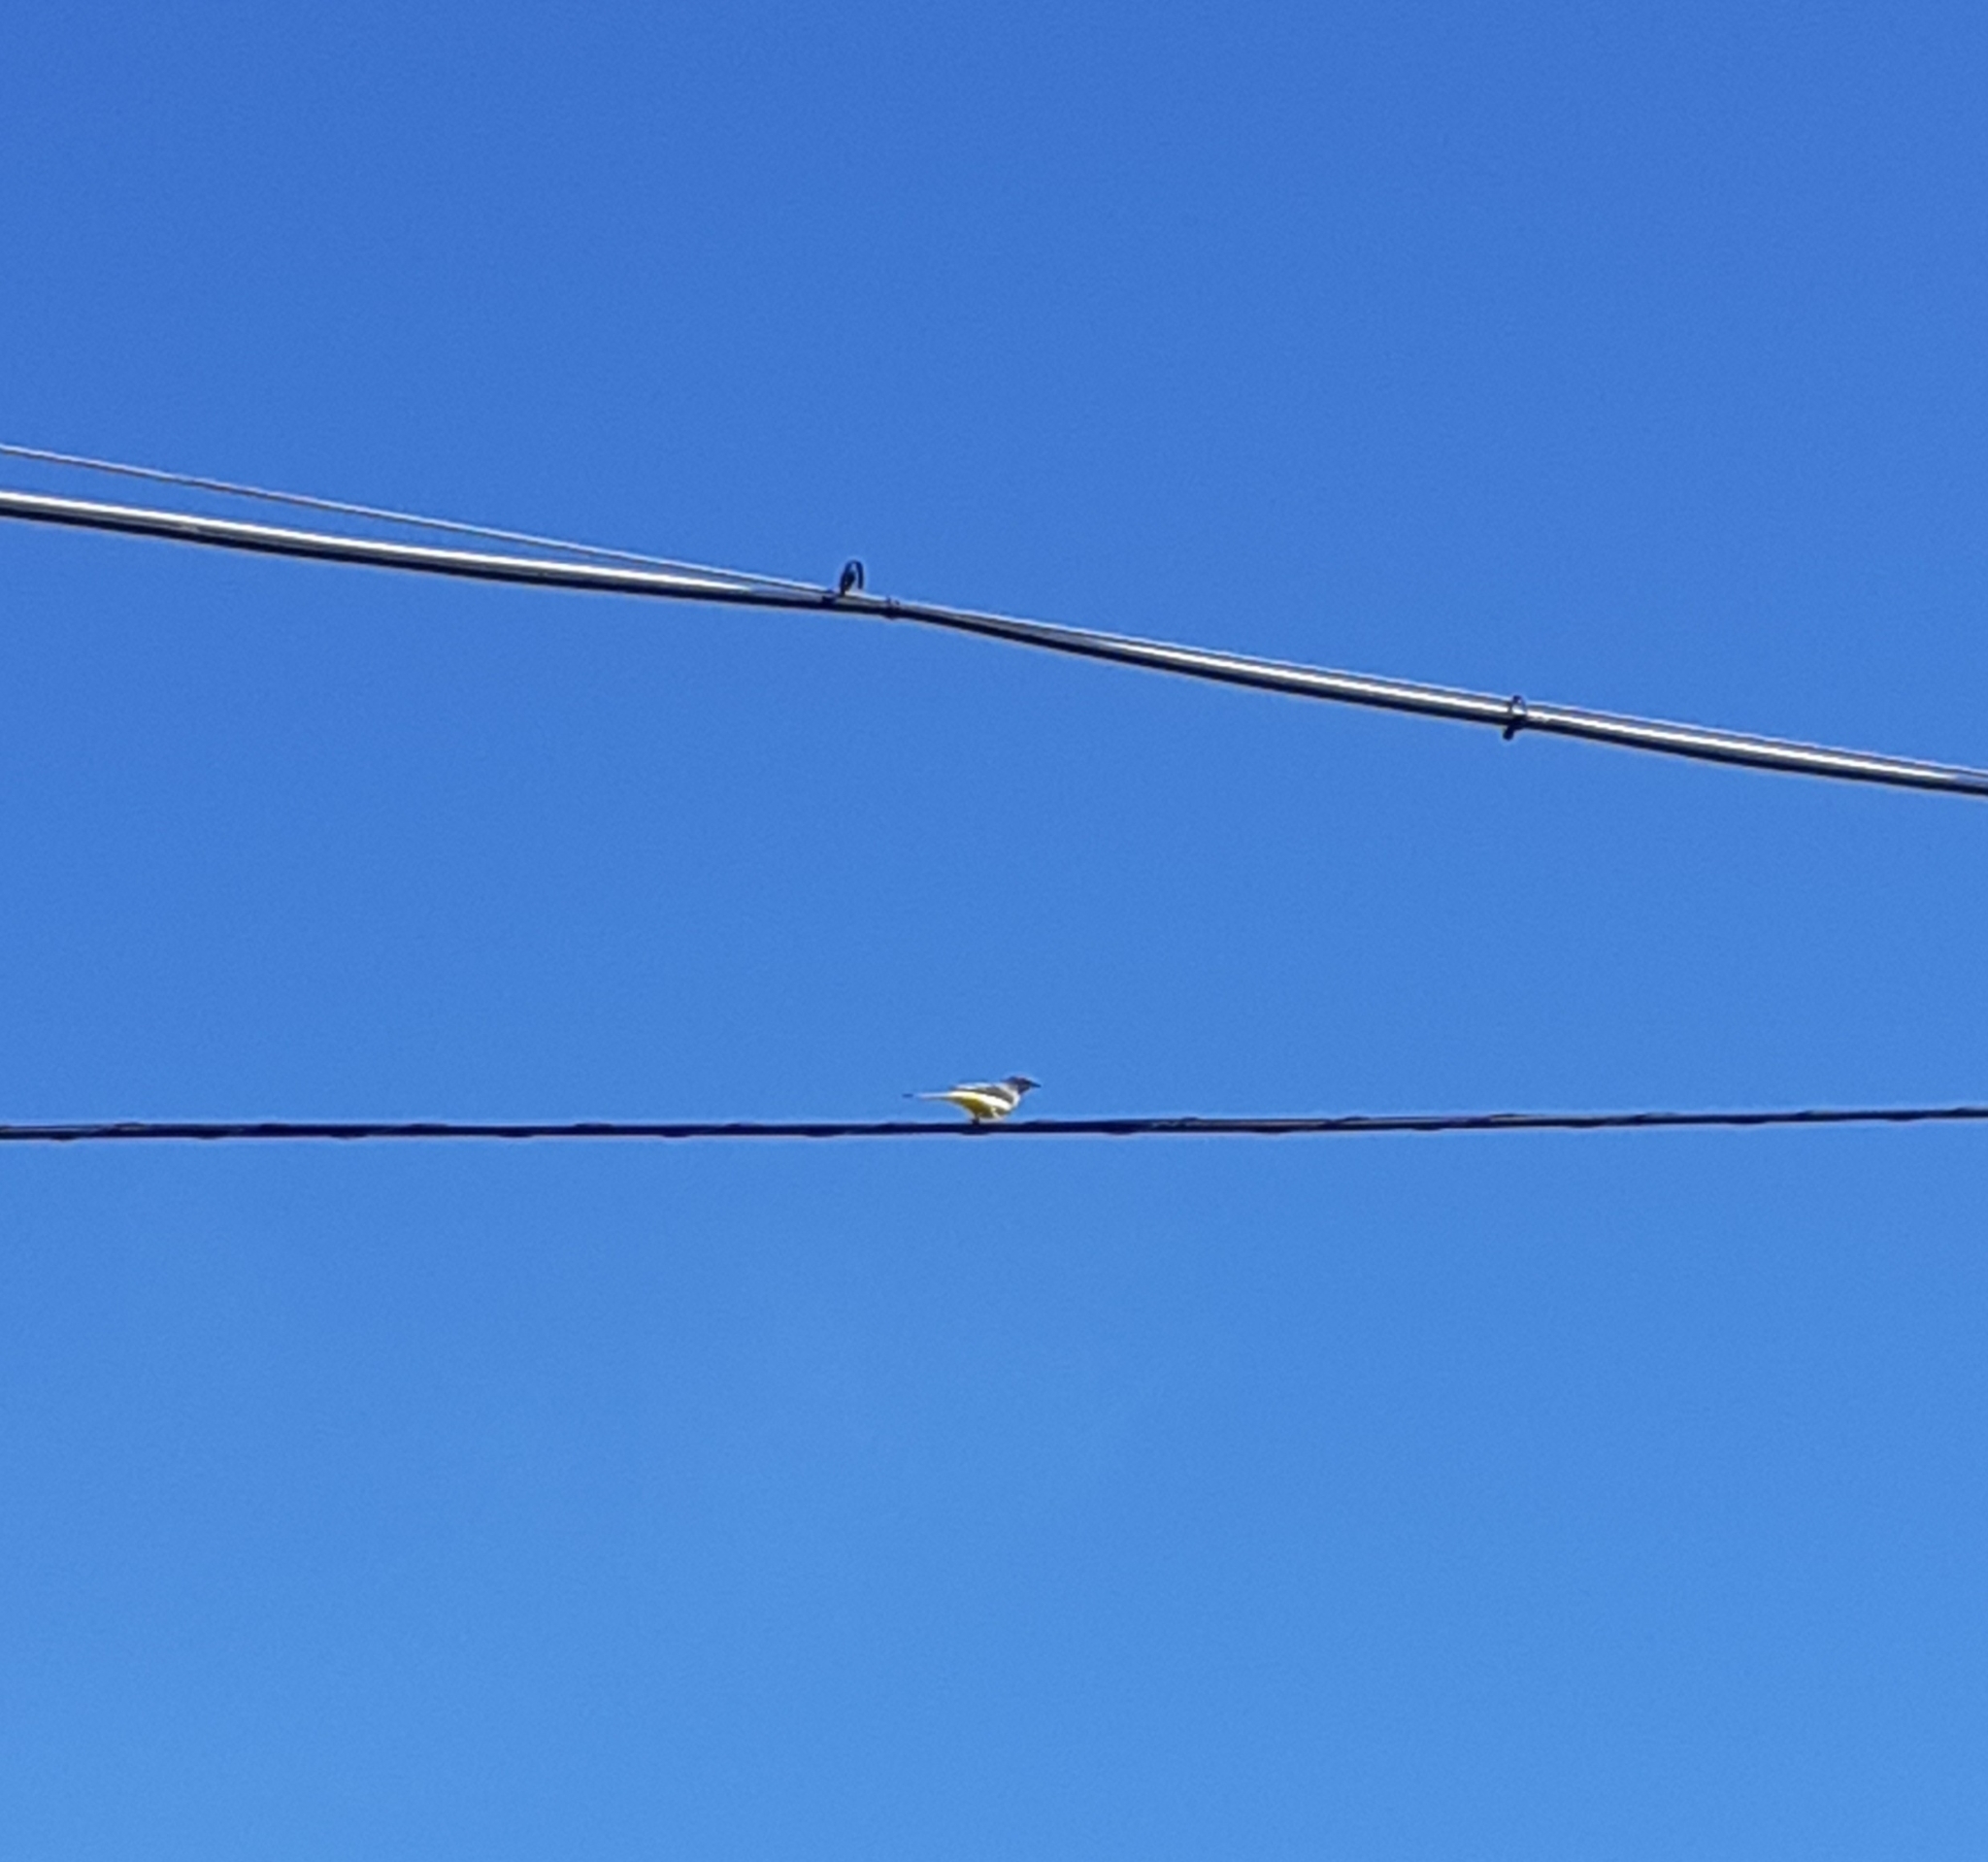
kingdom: Animalia
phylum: Chordata
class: Aves
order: Passeriformes
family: Motacillidae
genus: Motacilla
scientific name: Motacilla cinerea
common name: Grey wagtail
